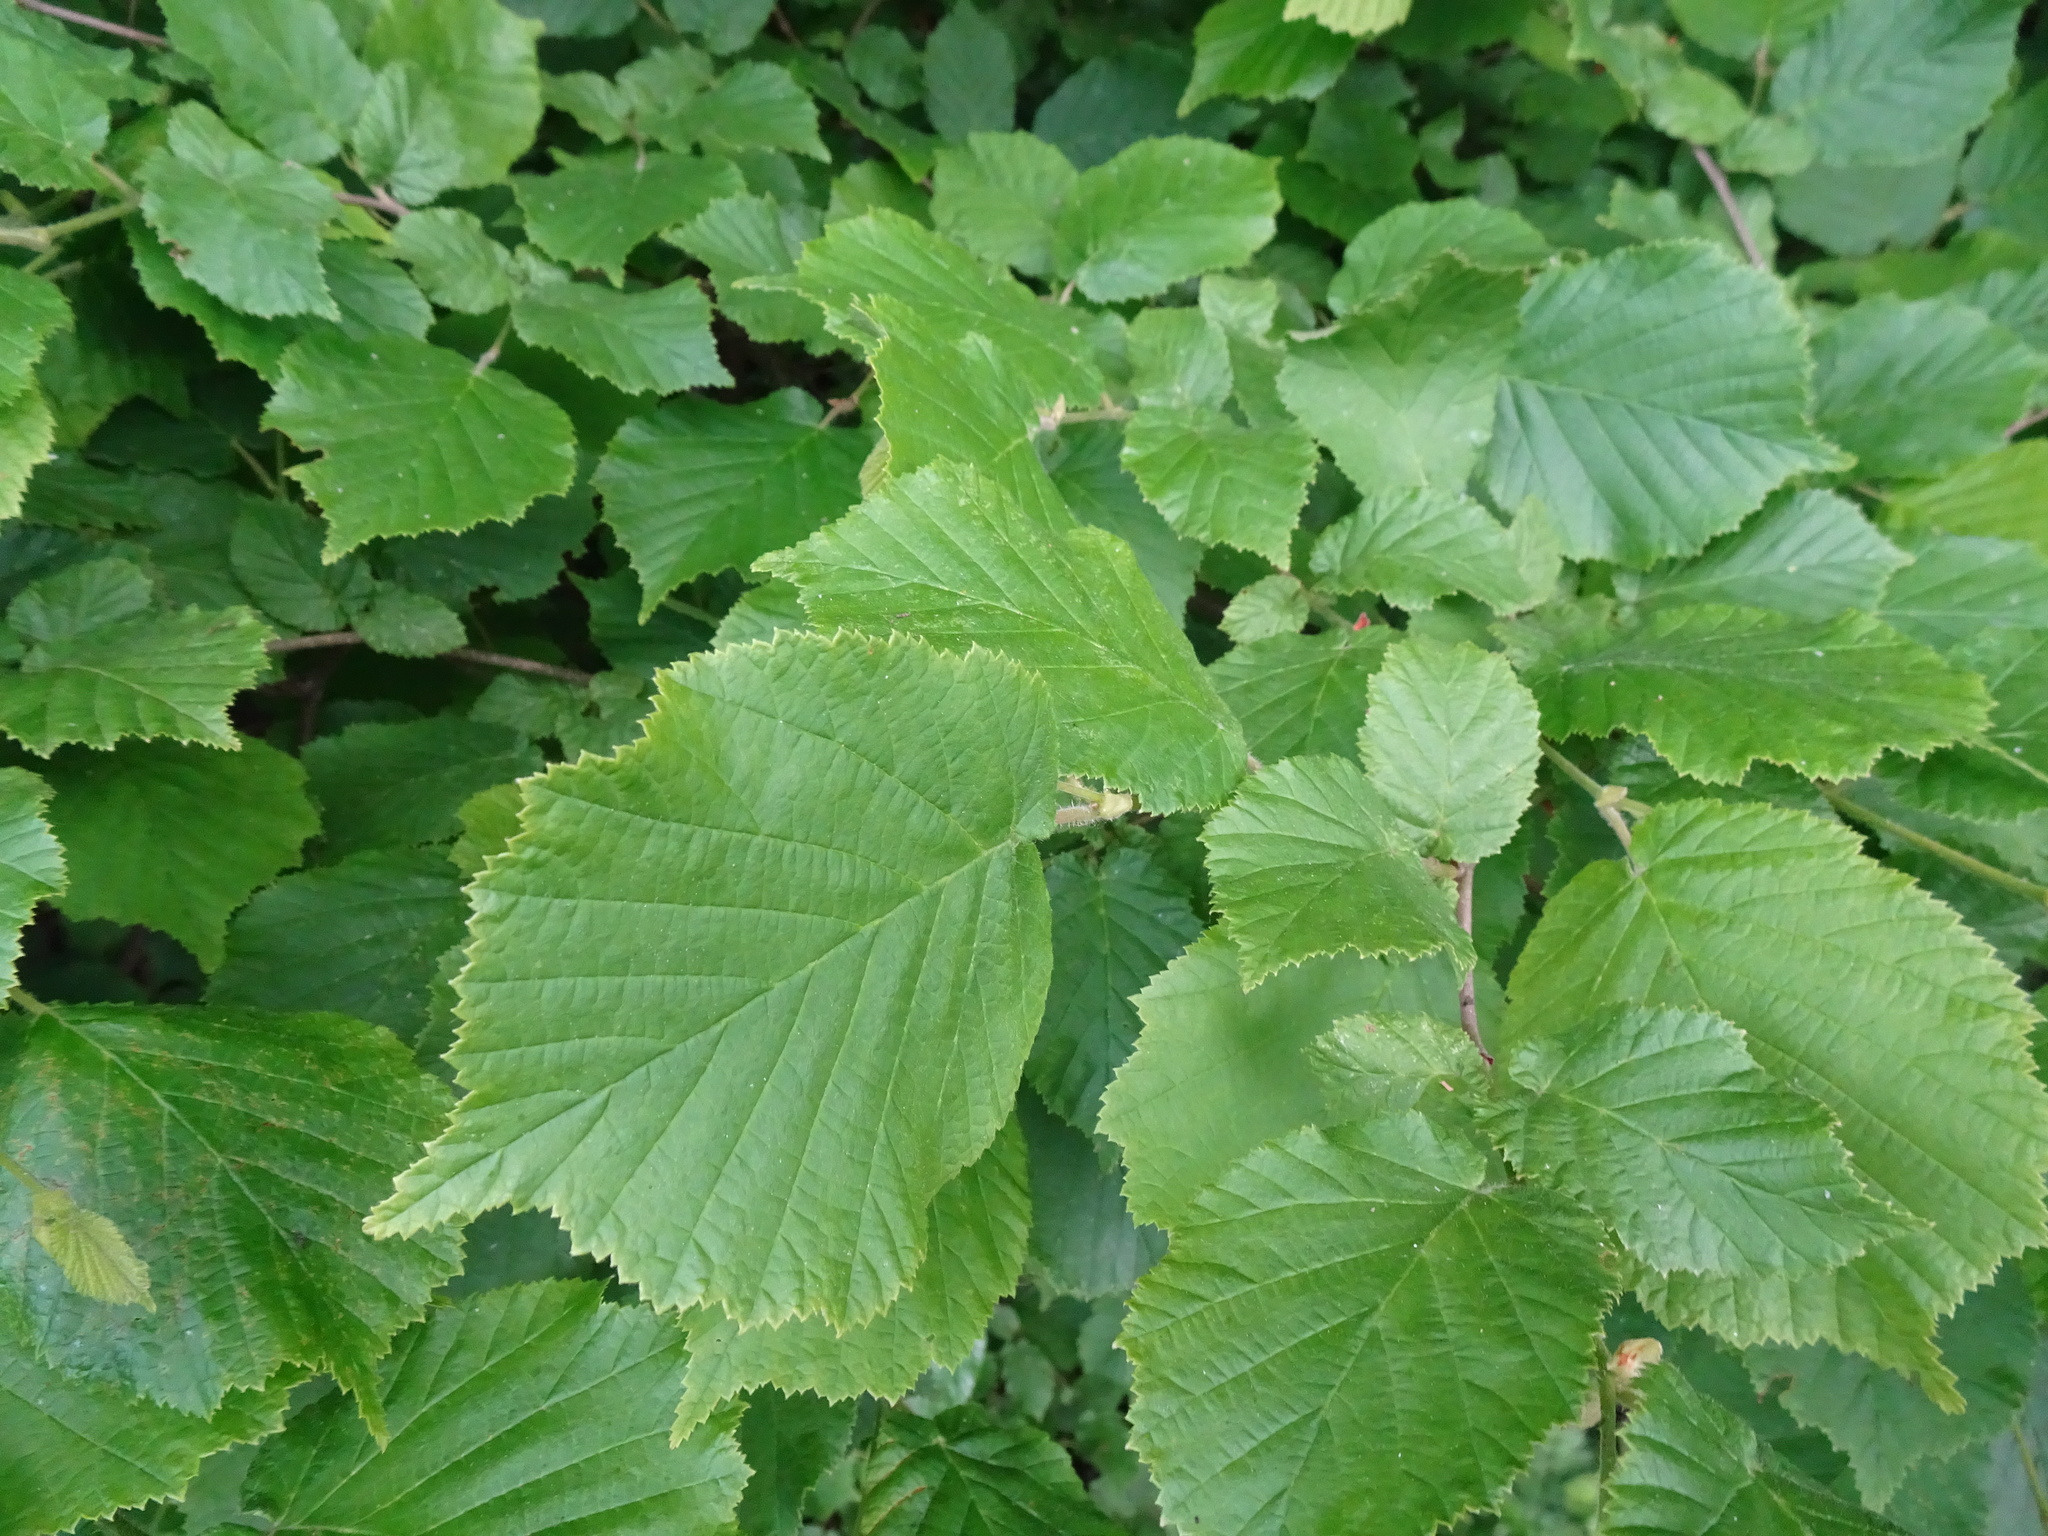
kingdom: Plantae
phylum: Tracheophyta
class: Magnoliopsida
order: Fagales
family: Betulaceae
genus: Corylus
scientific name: Corylus avellana
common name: European hazel
